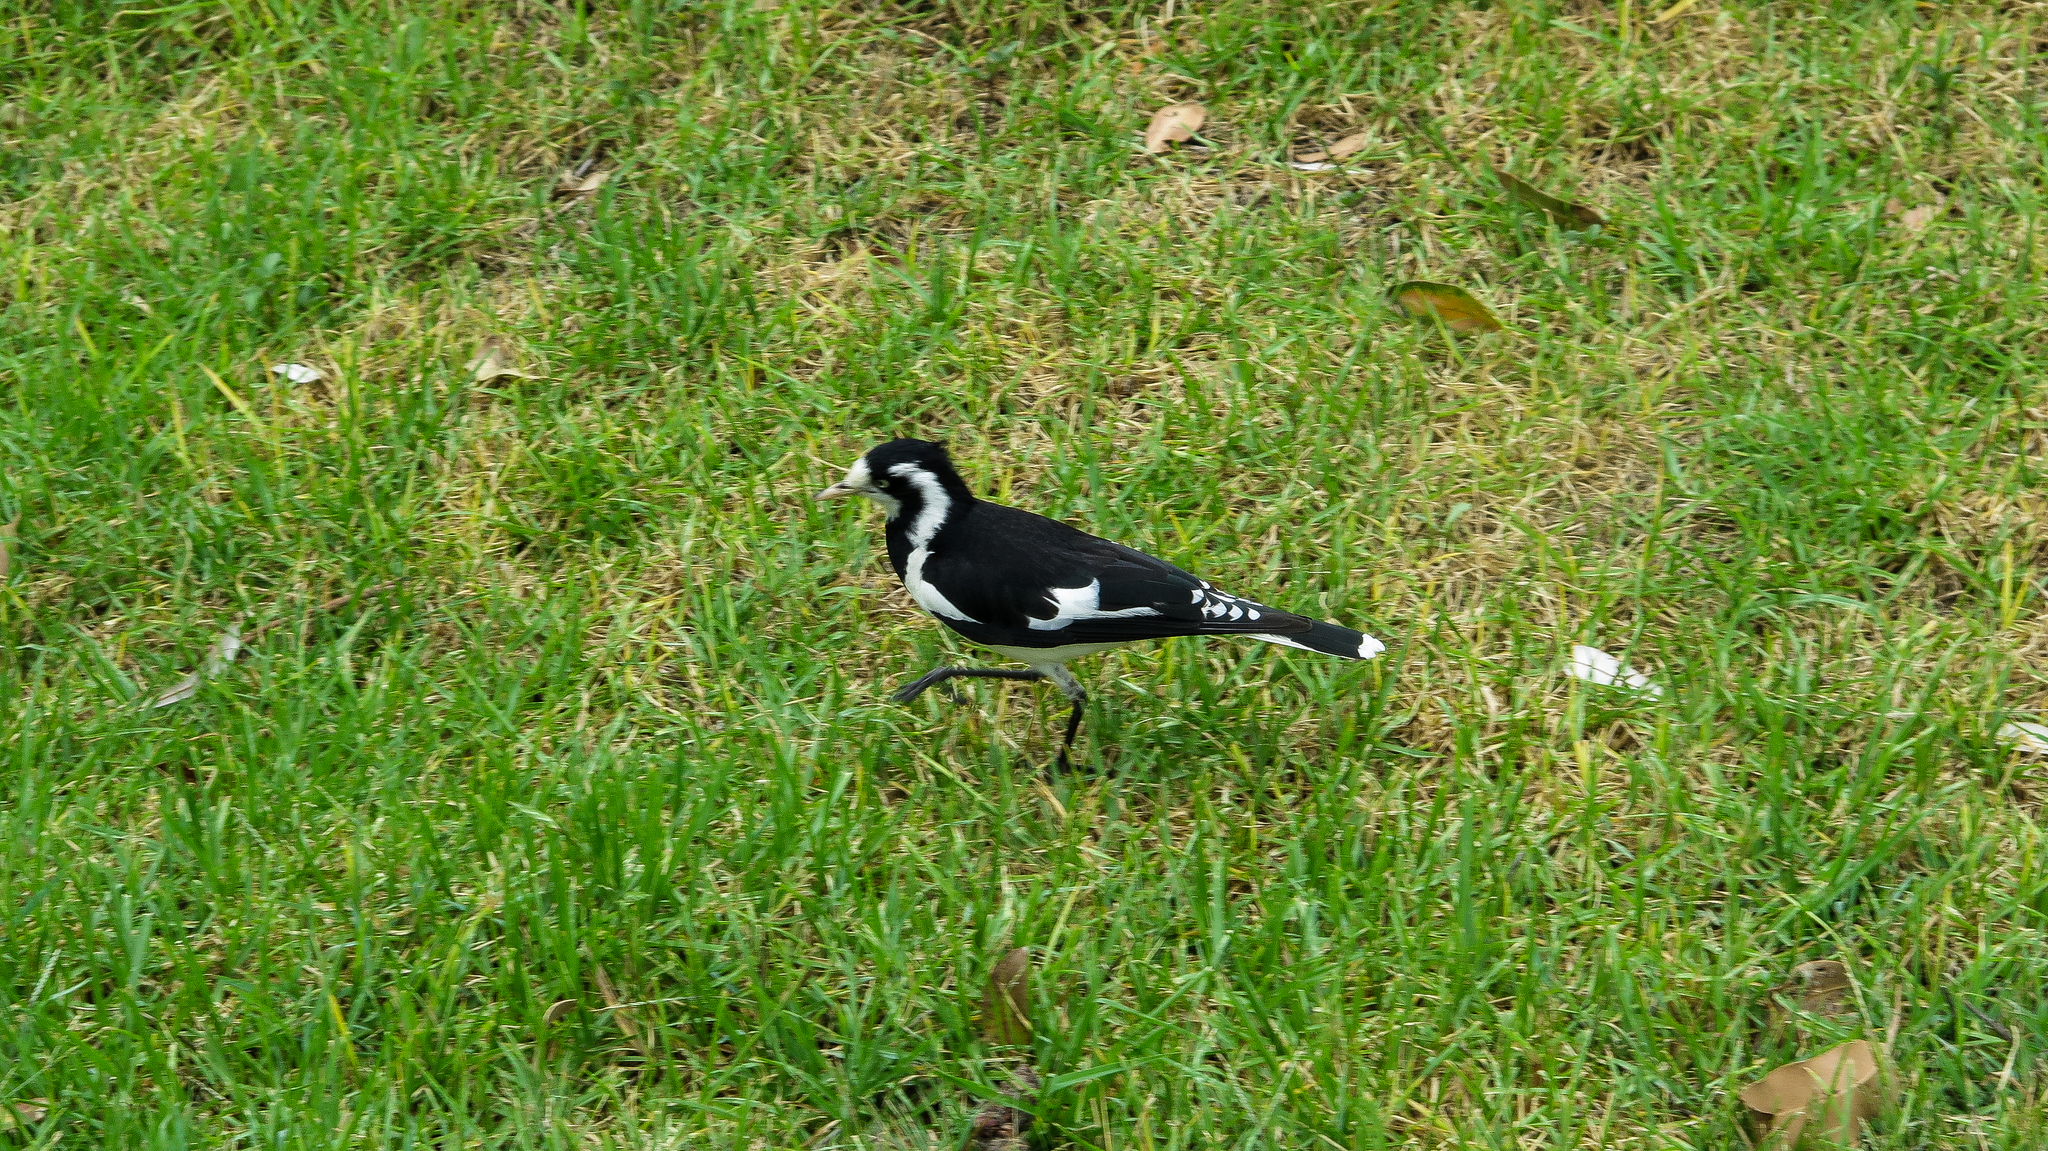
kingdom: Animalia
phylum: Chordata
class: Aves
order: Passeriformes
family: Monarchidae
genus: Grallina
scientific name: Grallina cyanoleuca
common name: Magpie-lark
